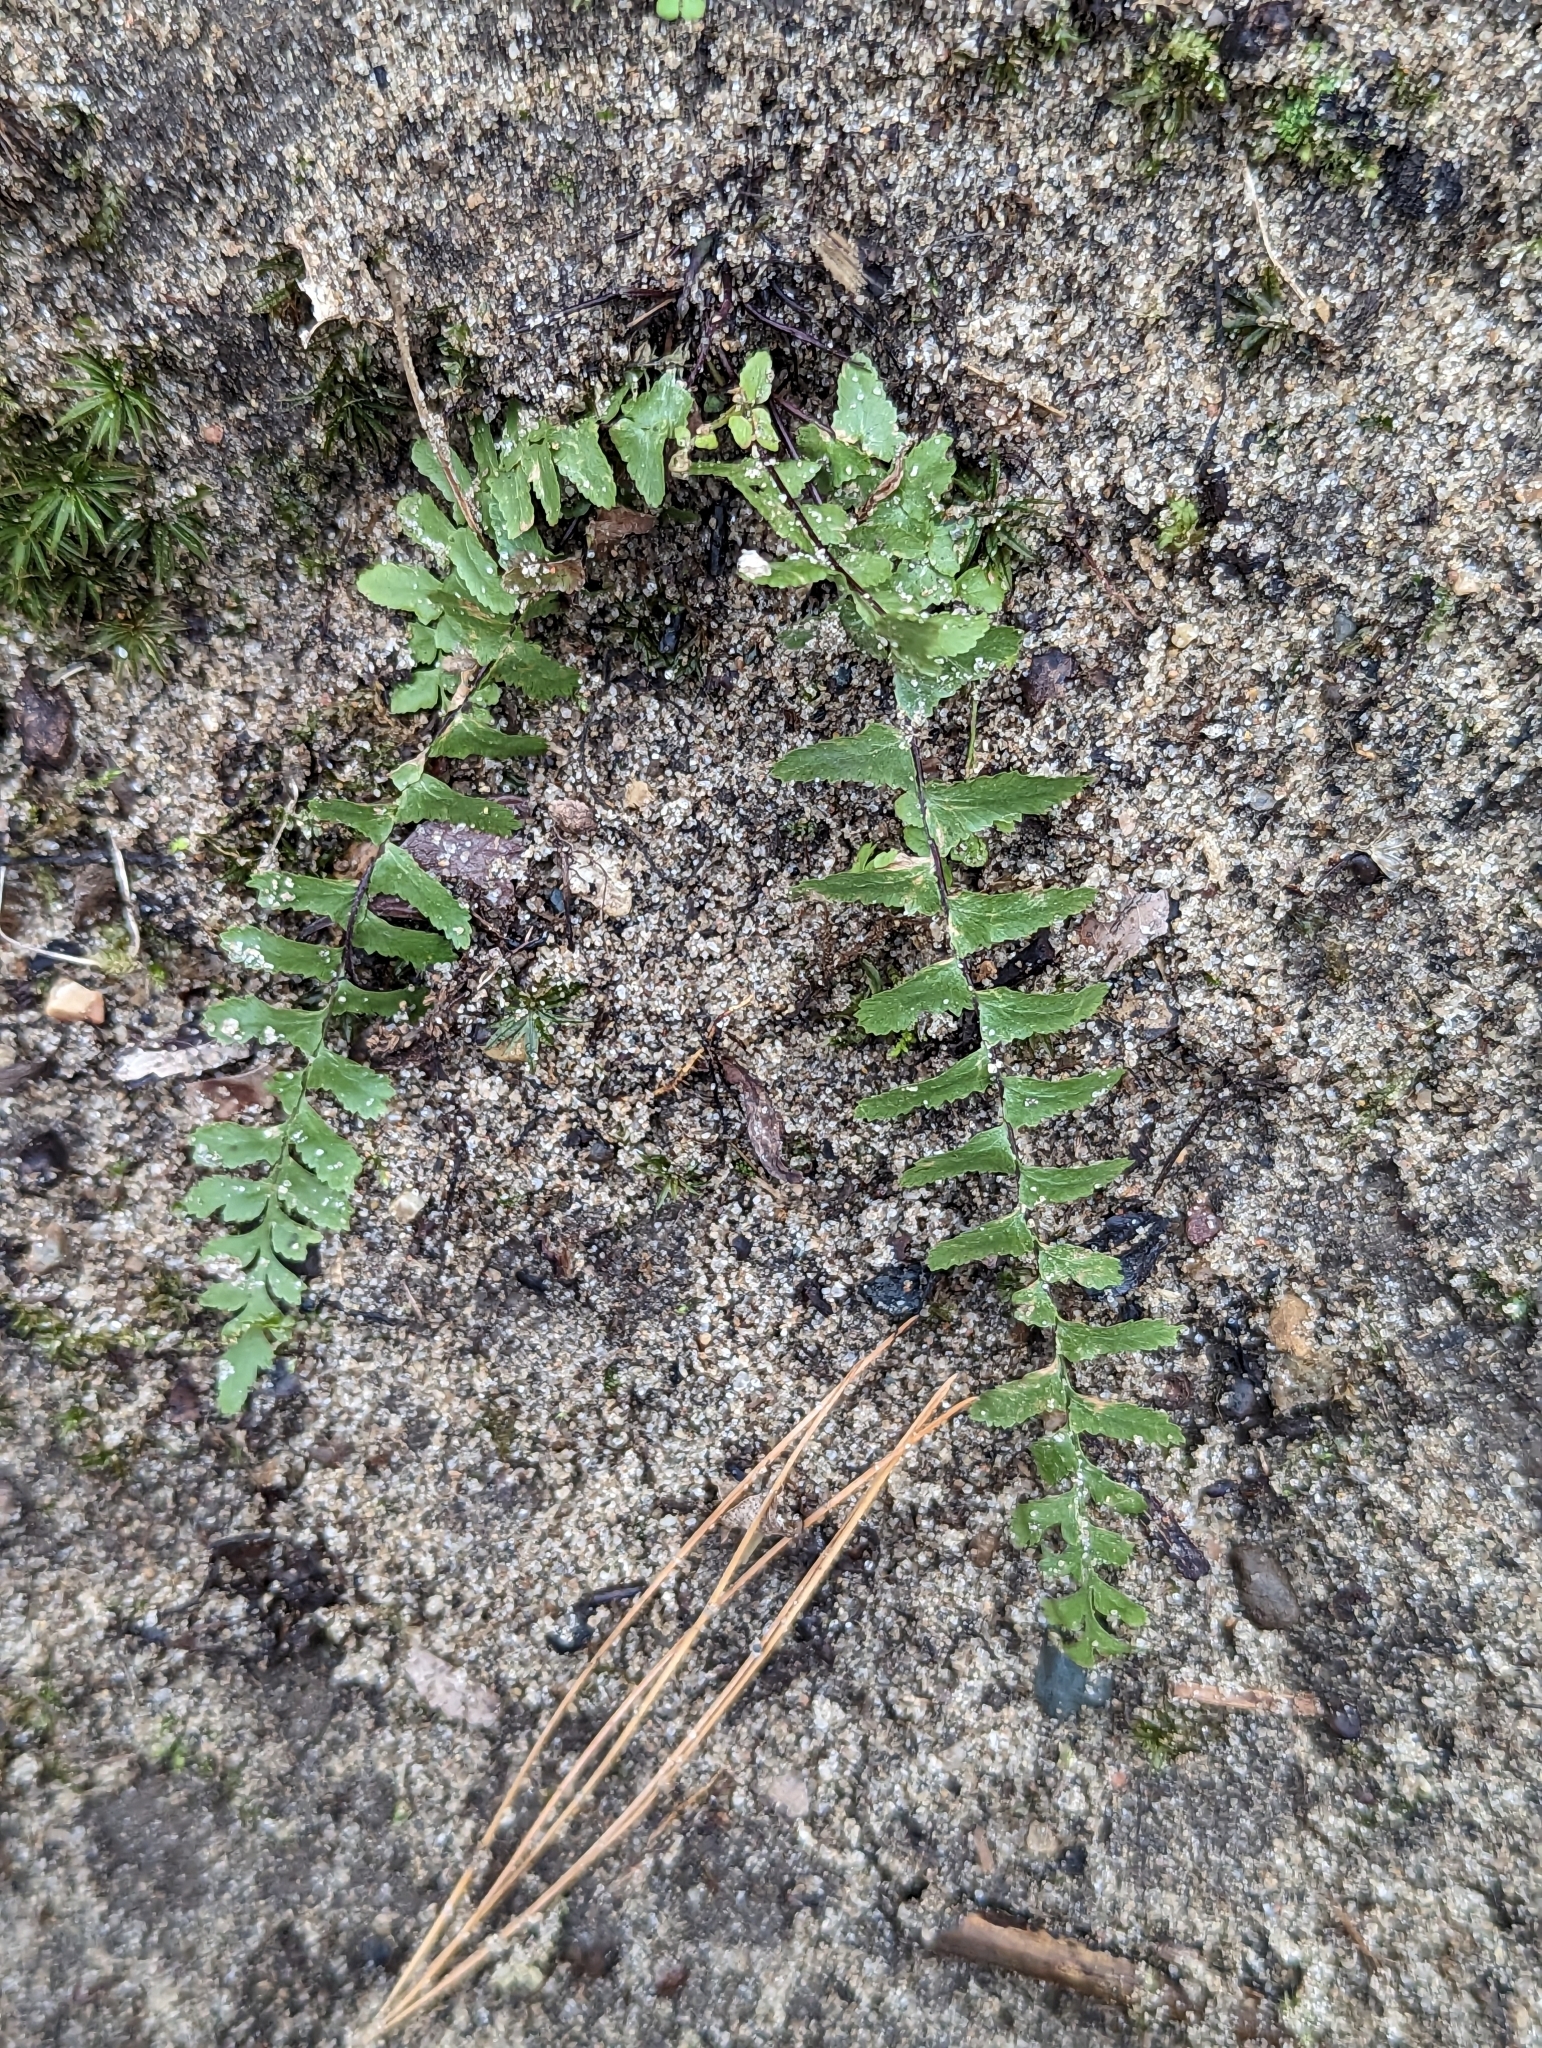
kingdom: Plantae
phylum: Tracheophyta
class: Polypodiopsida
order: Polypodiales
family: Aspleniaceae
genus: Asplenium
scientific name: Asplenium platyneuron
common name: Ebony spleenwort
